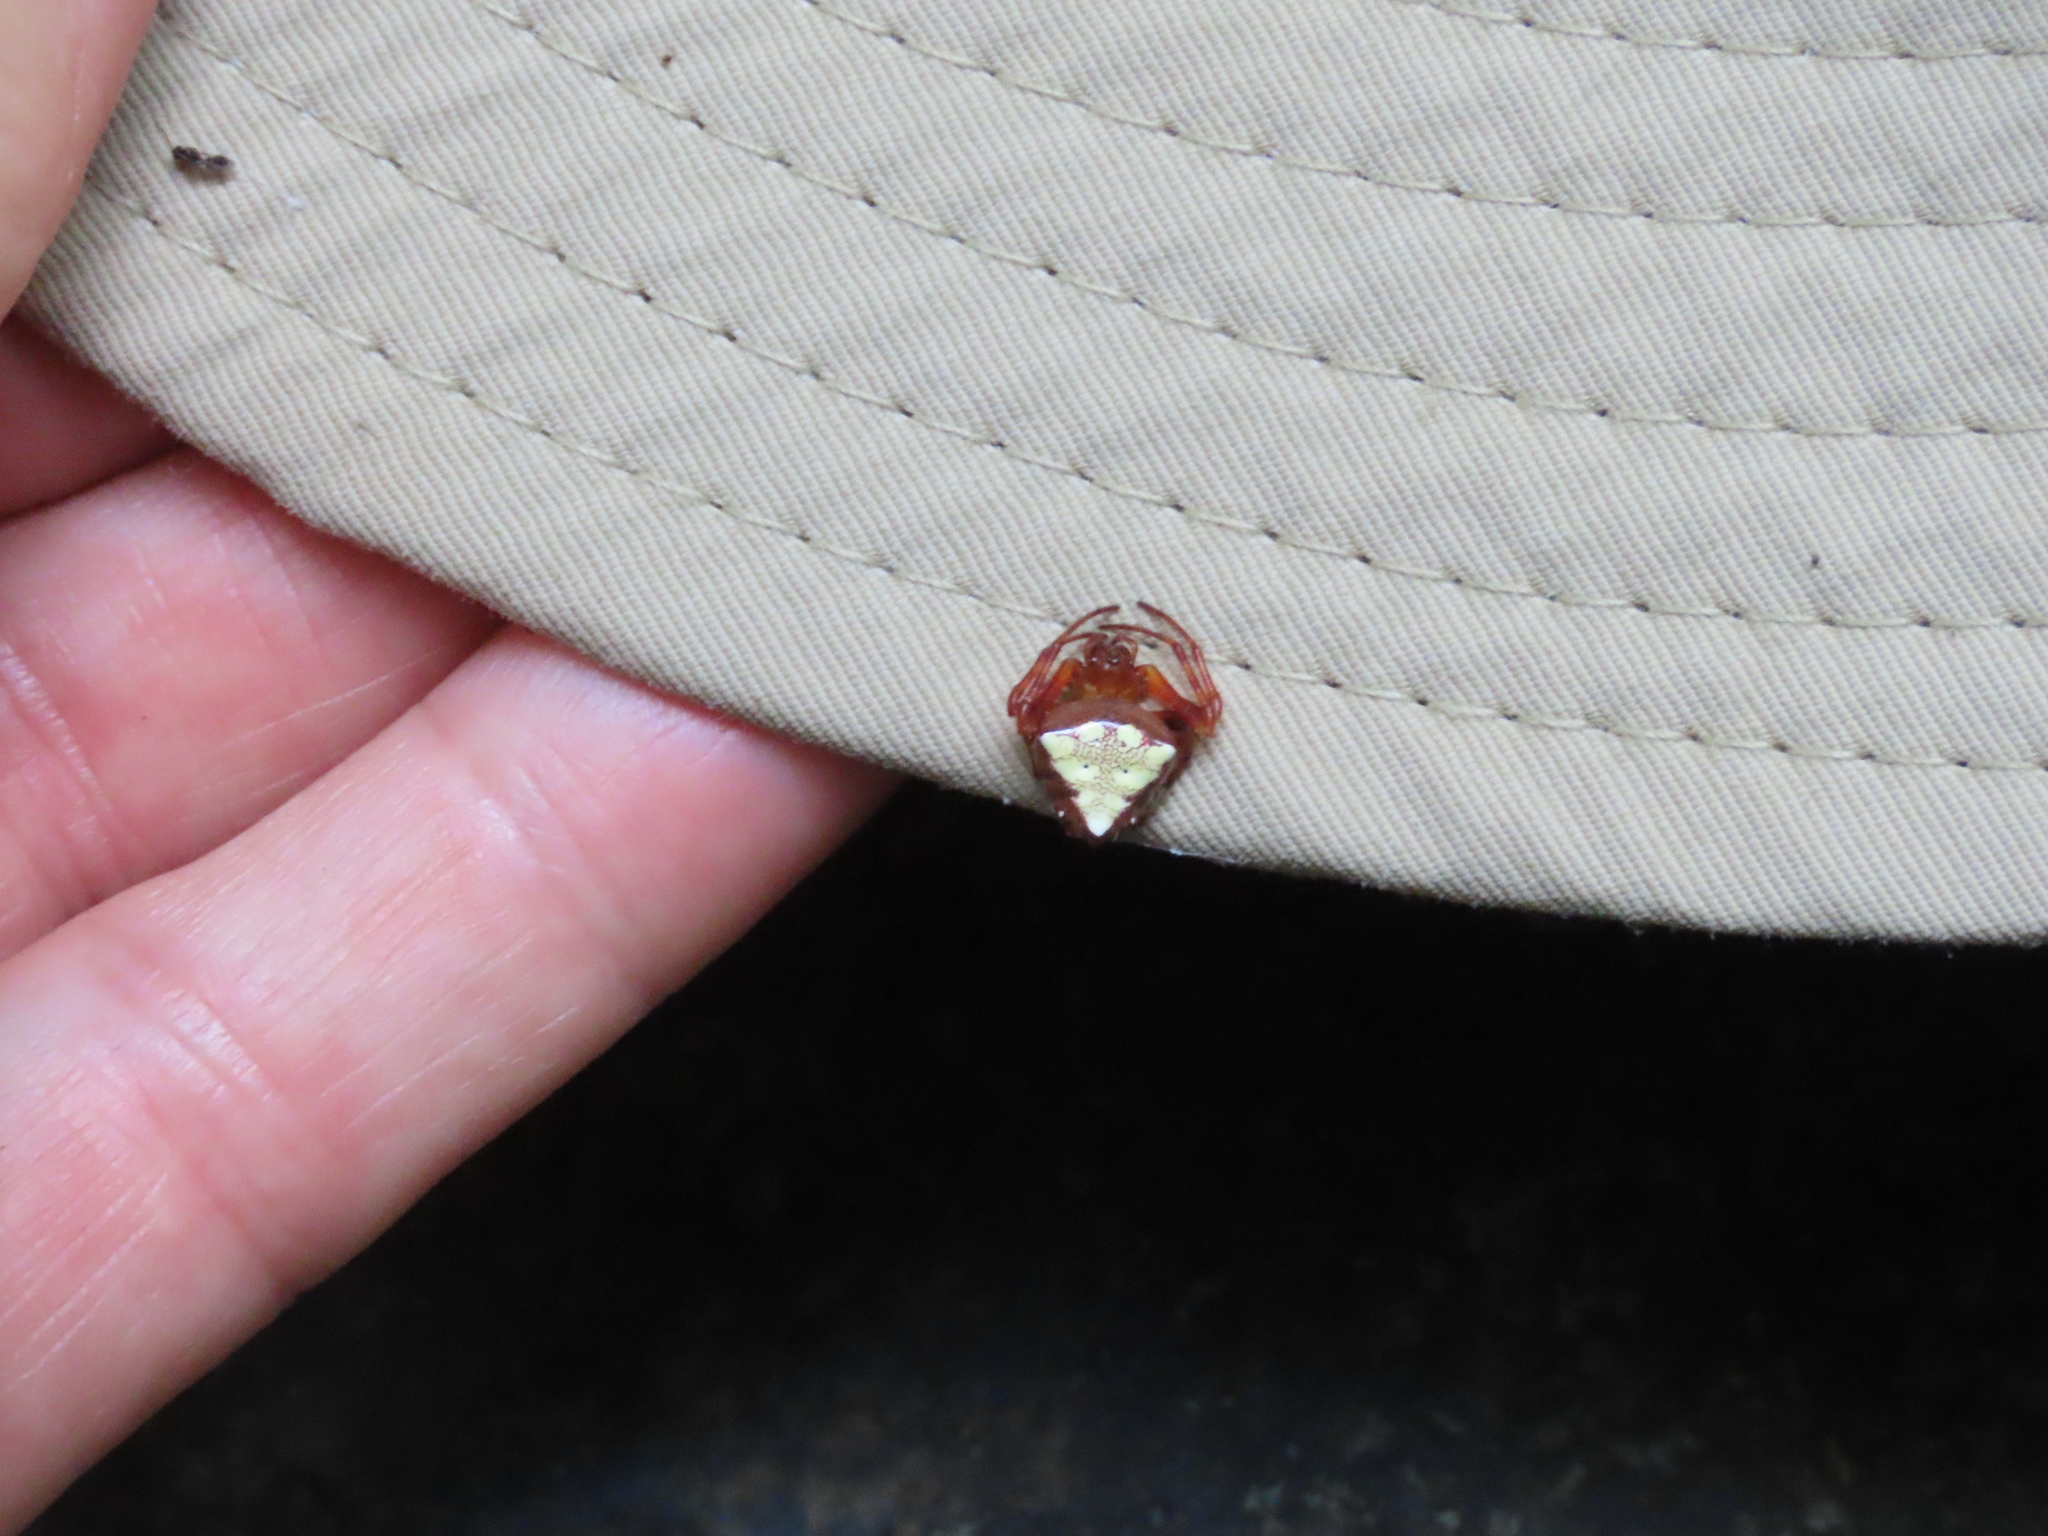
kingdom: Animalia
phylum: Arthropoda
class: Arachnida
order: Araneae
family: Araneidae
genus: Verrucosa
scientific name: Verrucosa arenata
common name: Orb weavers
